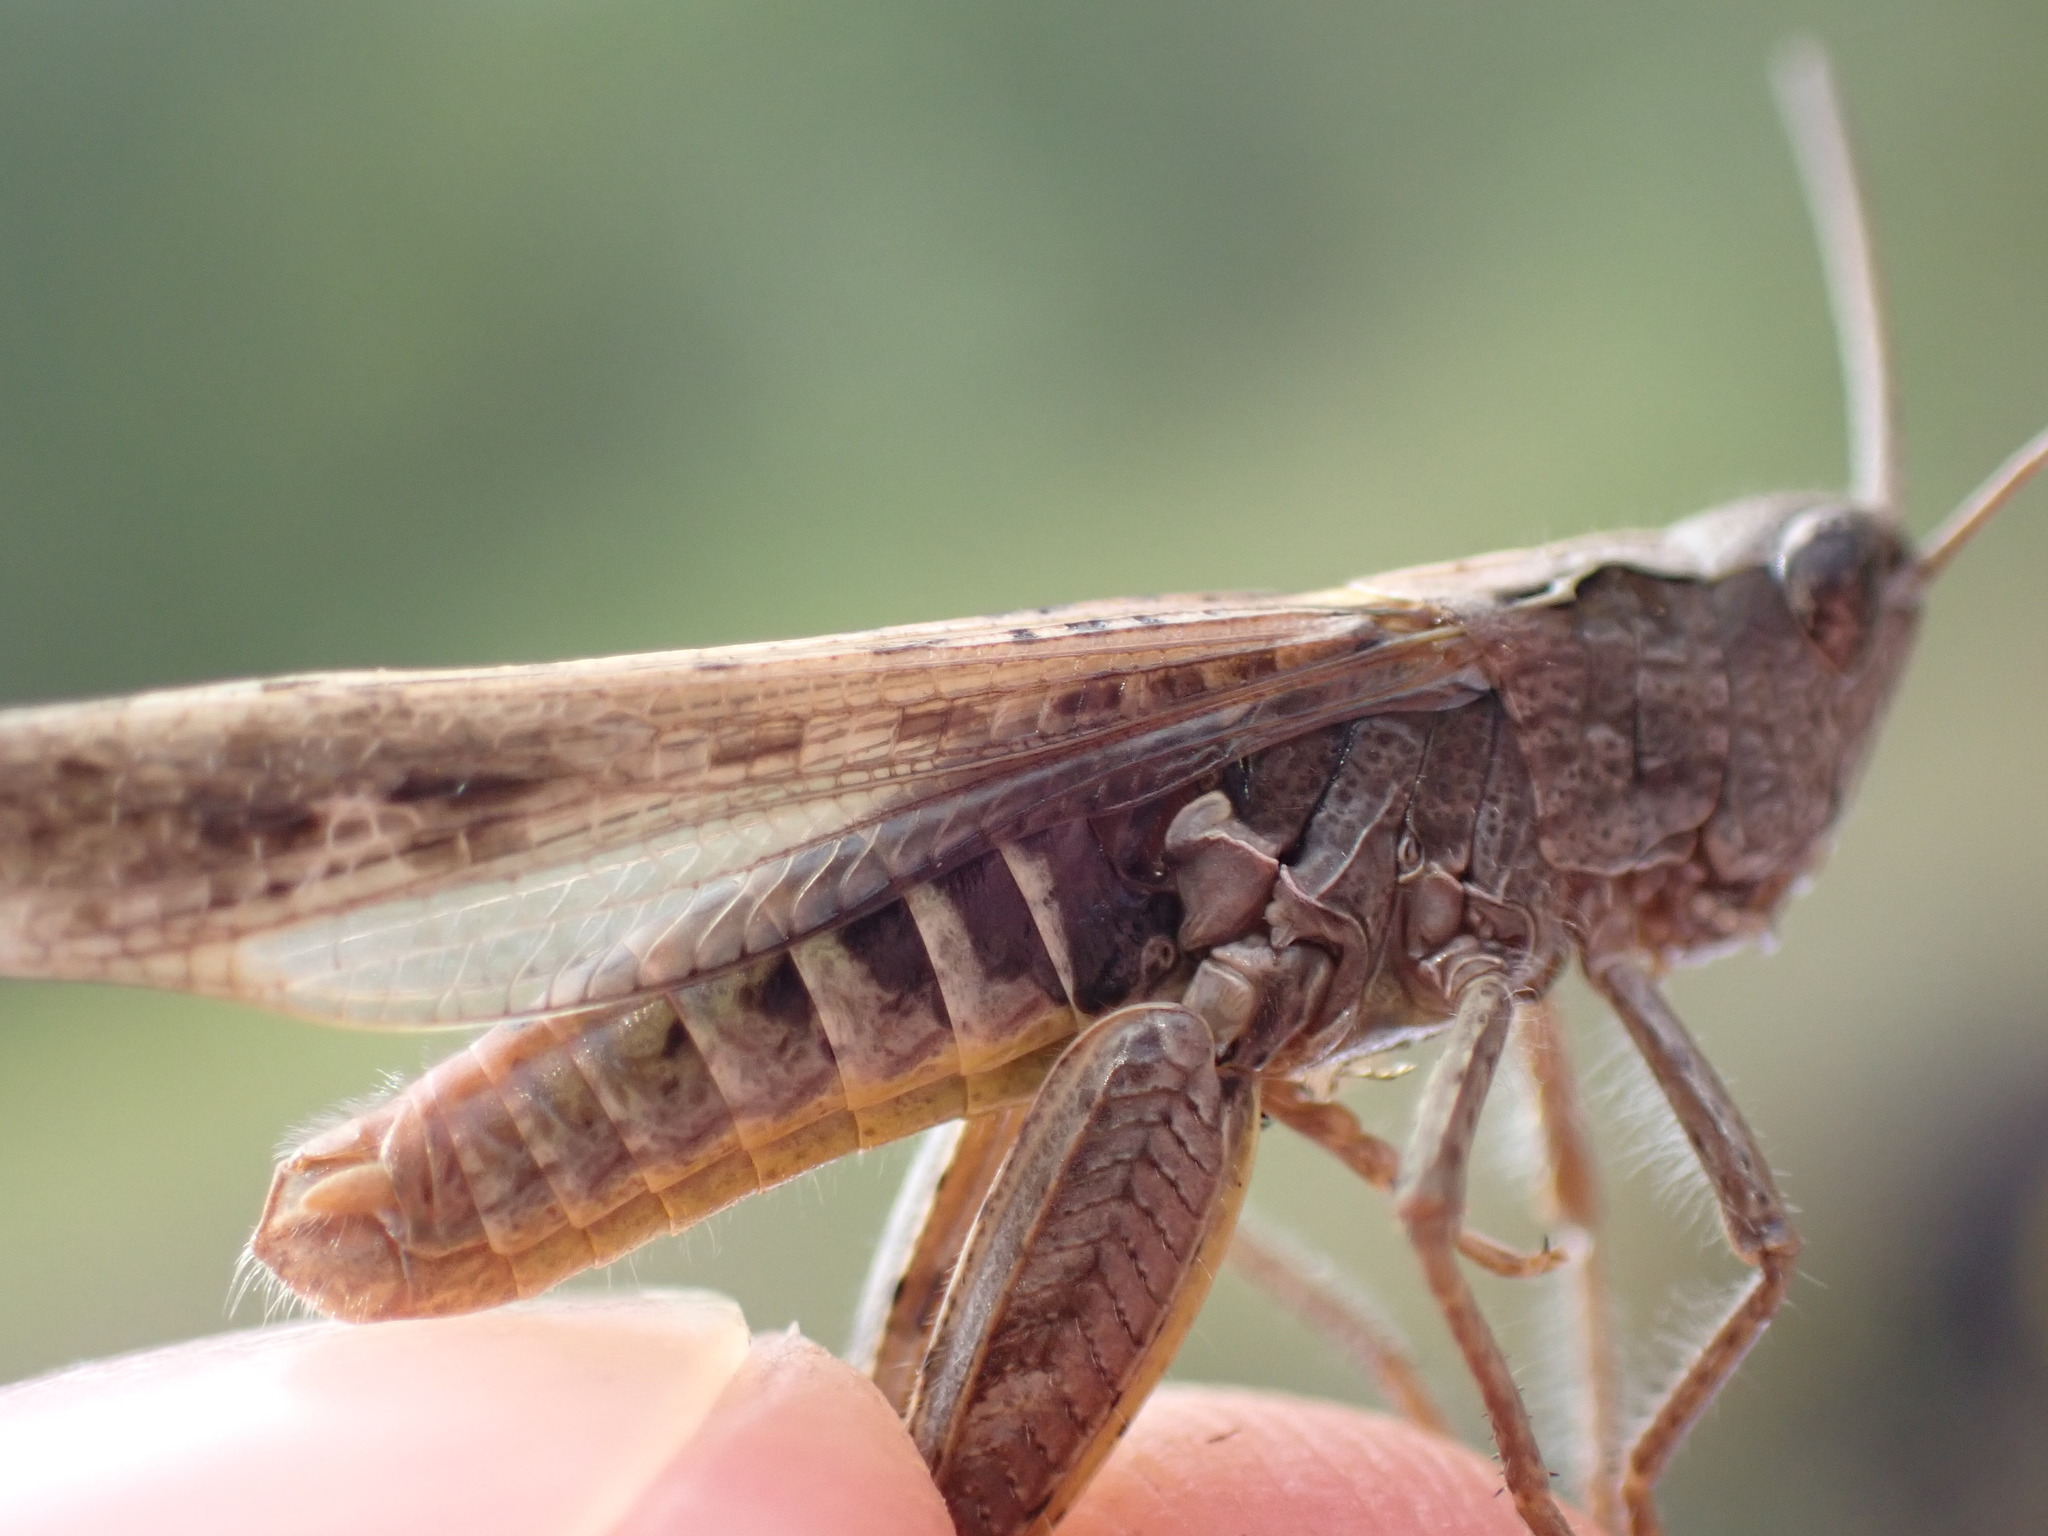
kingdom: Animalia
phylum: Arthropoda
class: Insecta
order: Orthoptera
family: Acrididae
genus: Chorthippus
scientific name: Chorthippus biguttulus
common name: Bow-winged grasshopper
